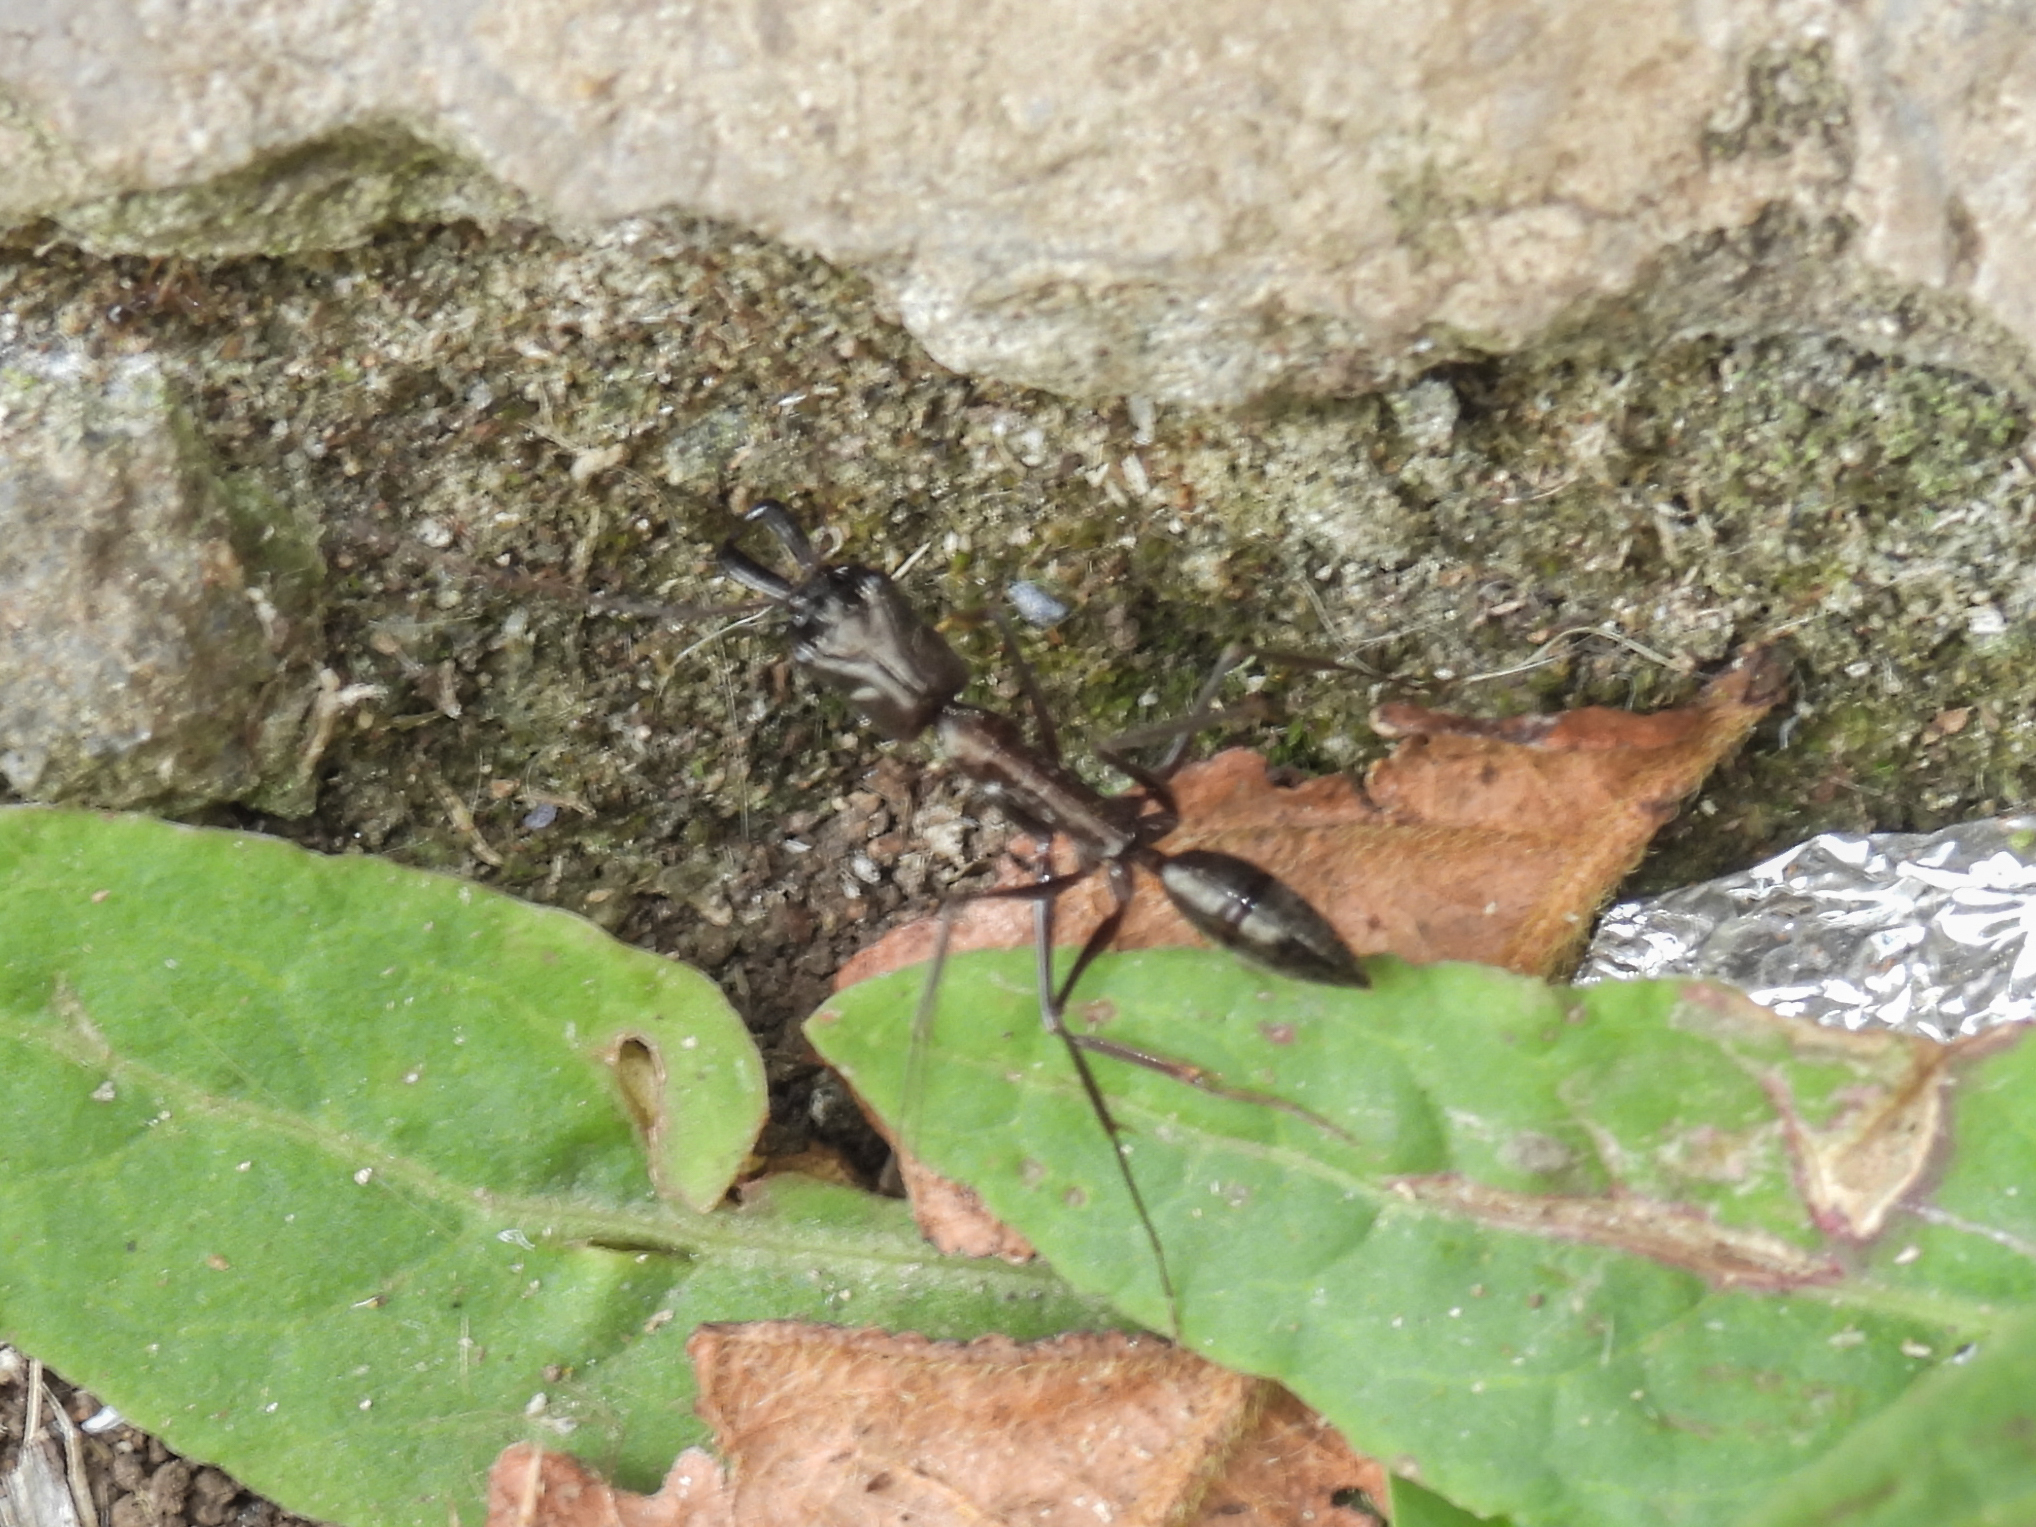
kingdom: Animalia
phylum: Arthropoda
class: Insecta
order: Hymenoptera
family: Formicidae
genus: Odontomachus
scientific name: Odontomachus chelifer
